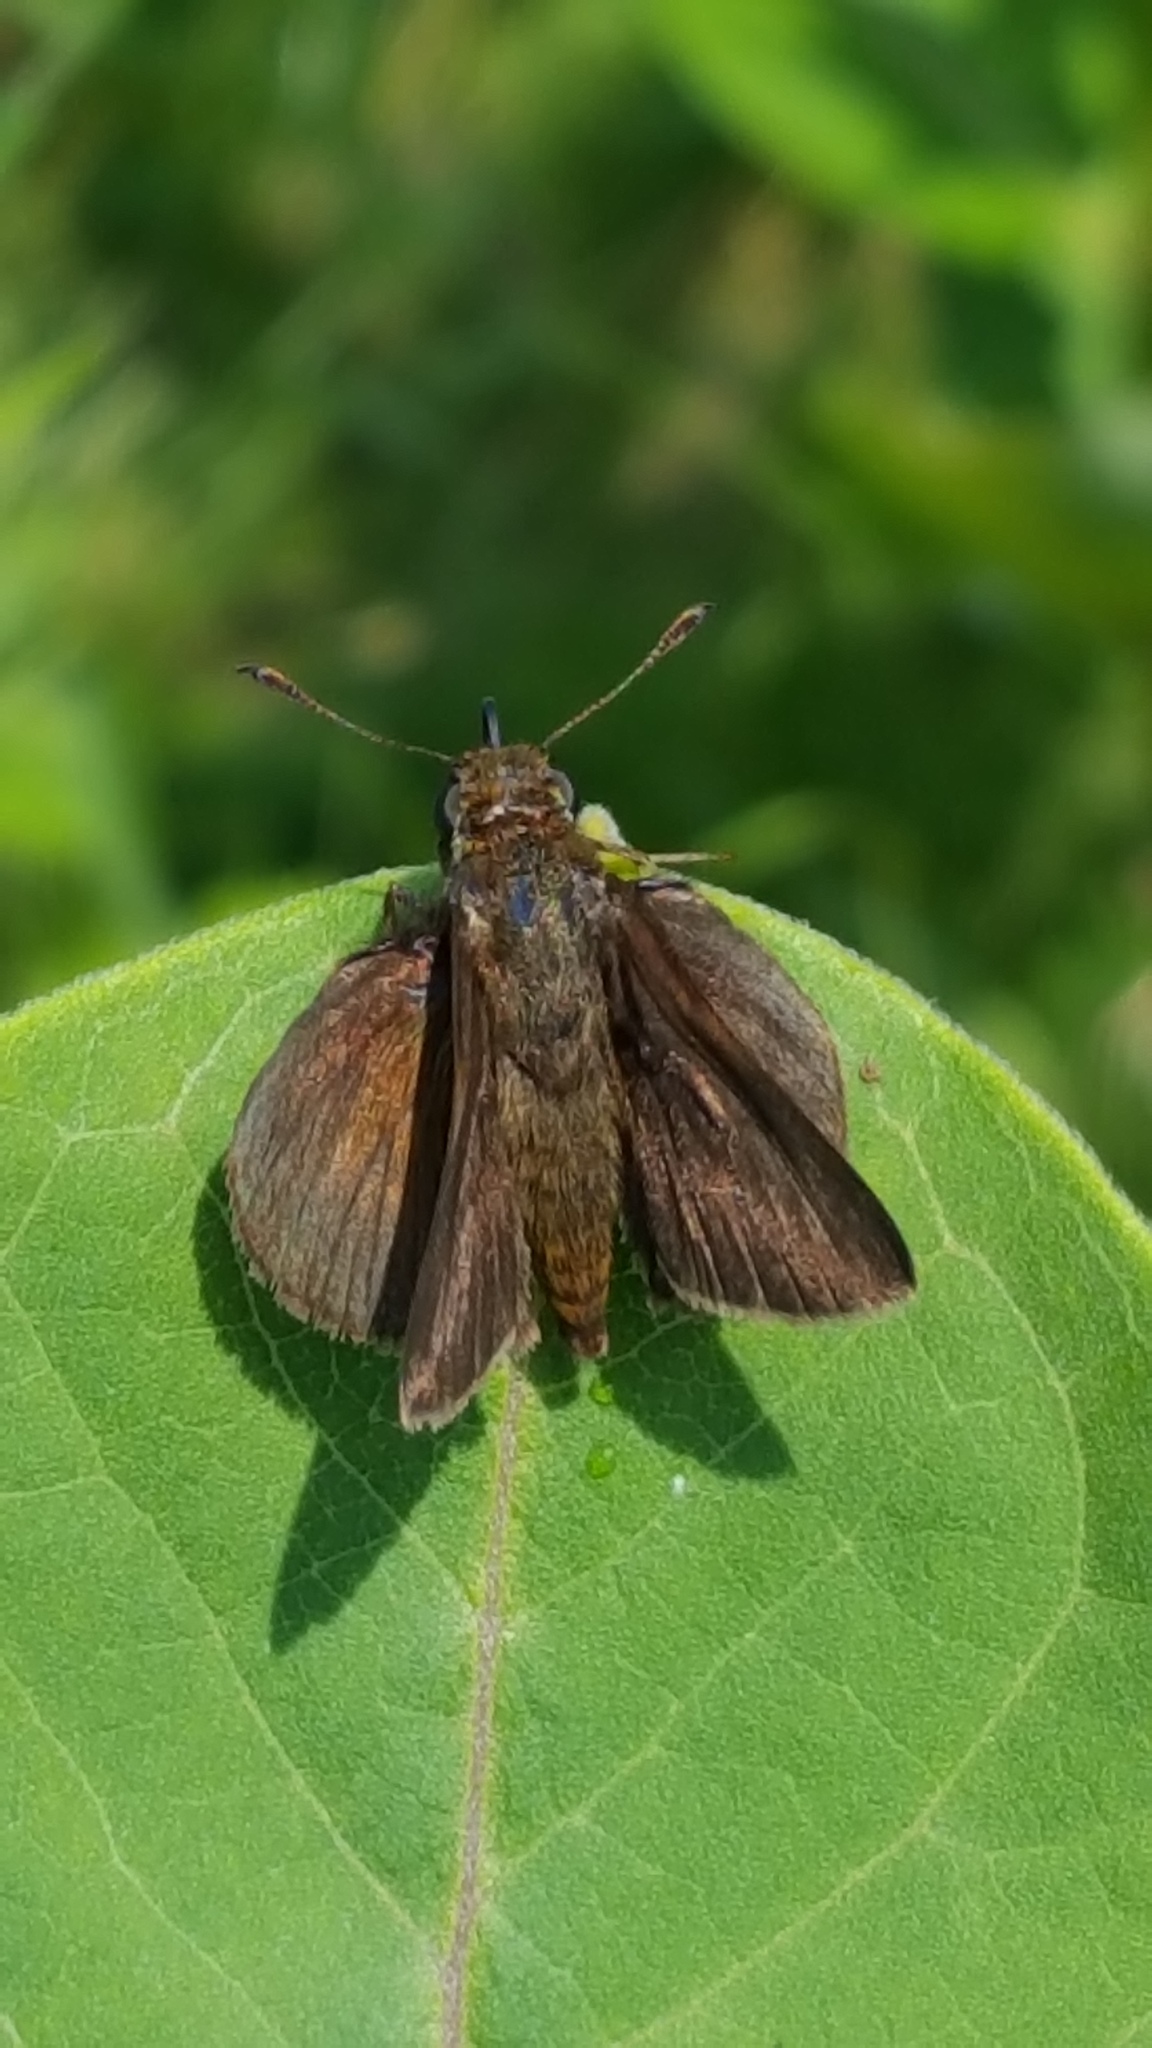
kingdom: Animalia
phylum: Arthropoda
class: Insecta
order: Lepidoptera
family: Hesperiidae
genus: Euphyes
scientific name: Euphyes vestris
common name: Dun skipper
